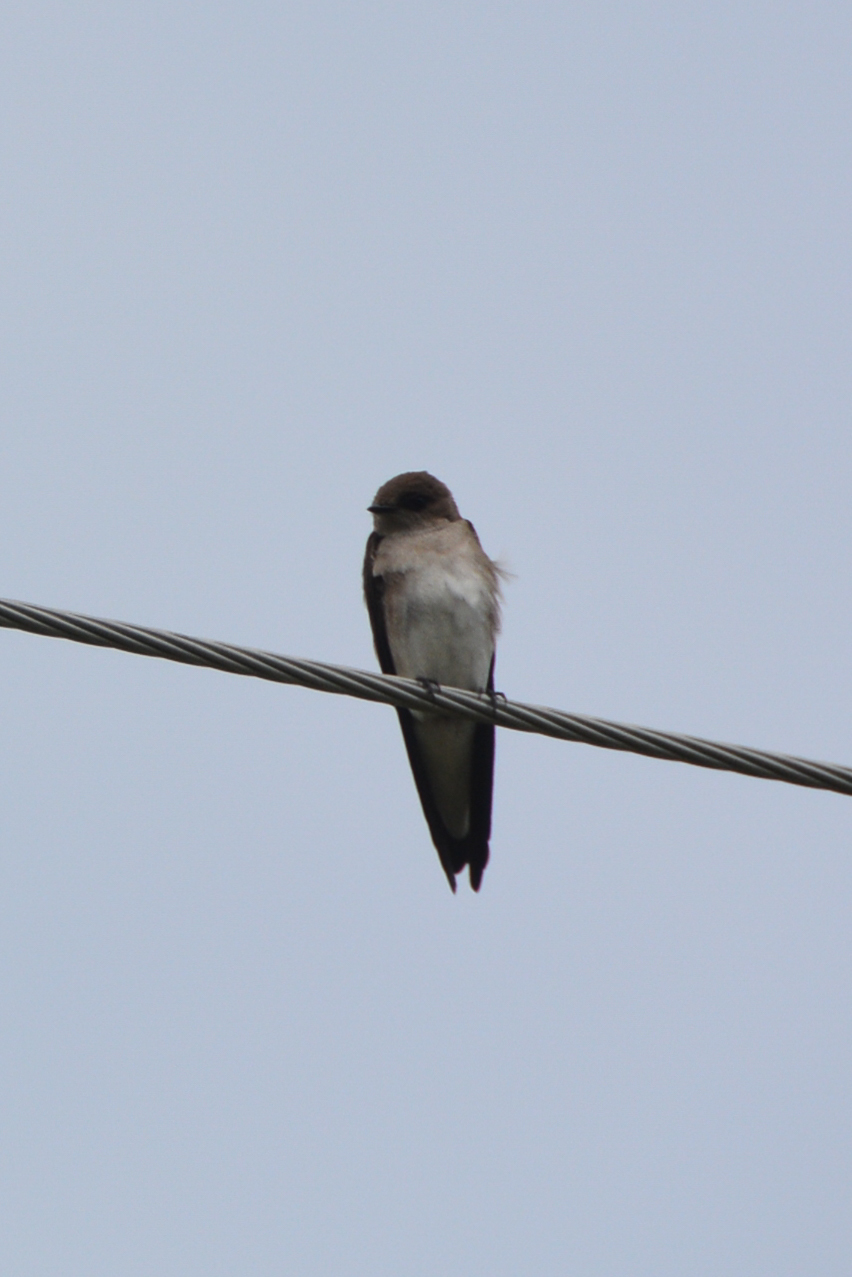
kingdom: Animalia
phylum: Chordata
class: Aves
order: Passeriformes
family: Hirundinidae
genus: Stelgidopteryx
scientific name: Stelgidopteryx serripennis
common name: Northern rough-winged swallow
